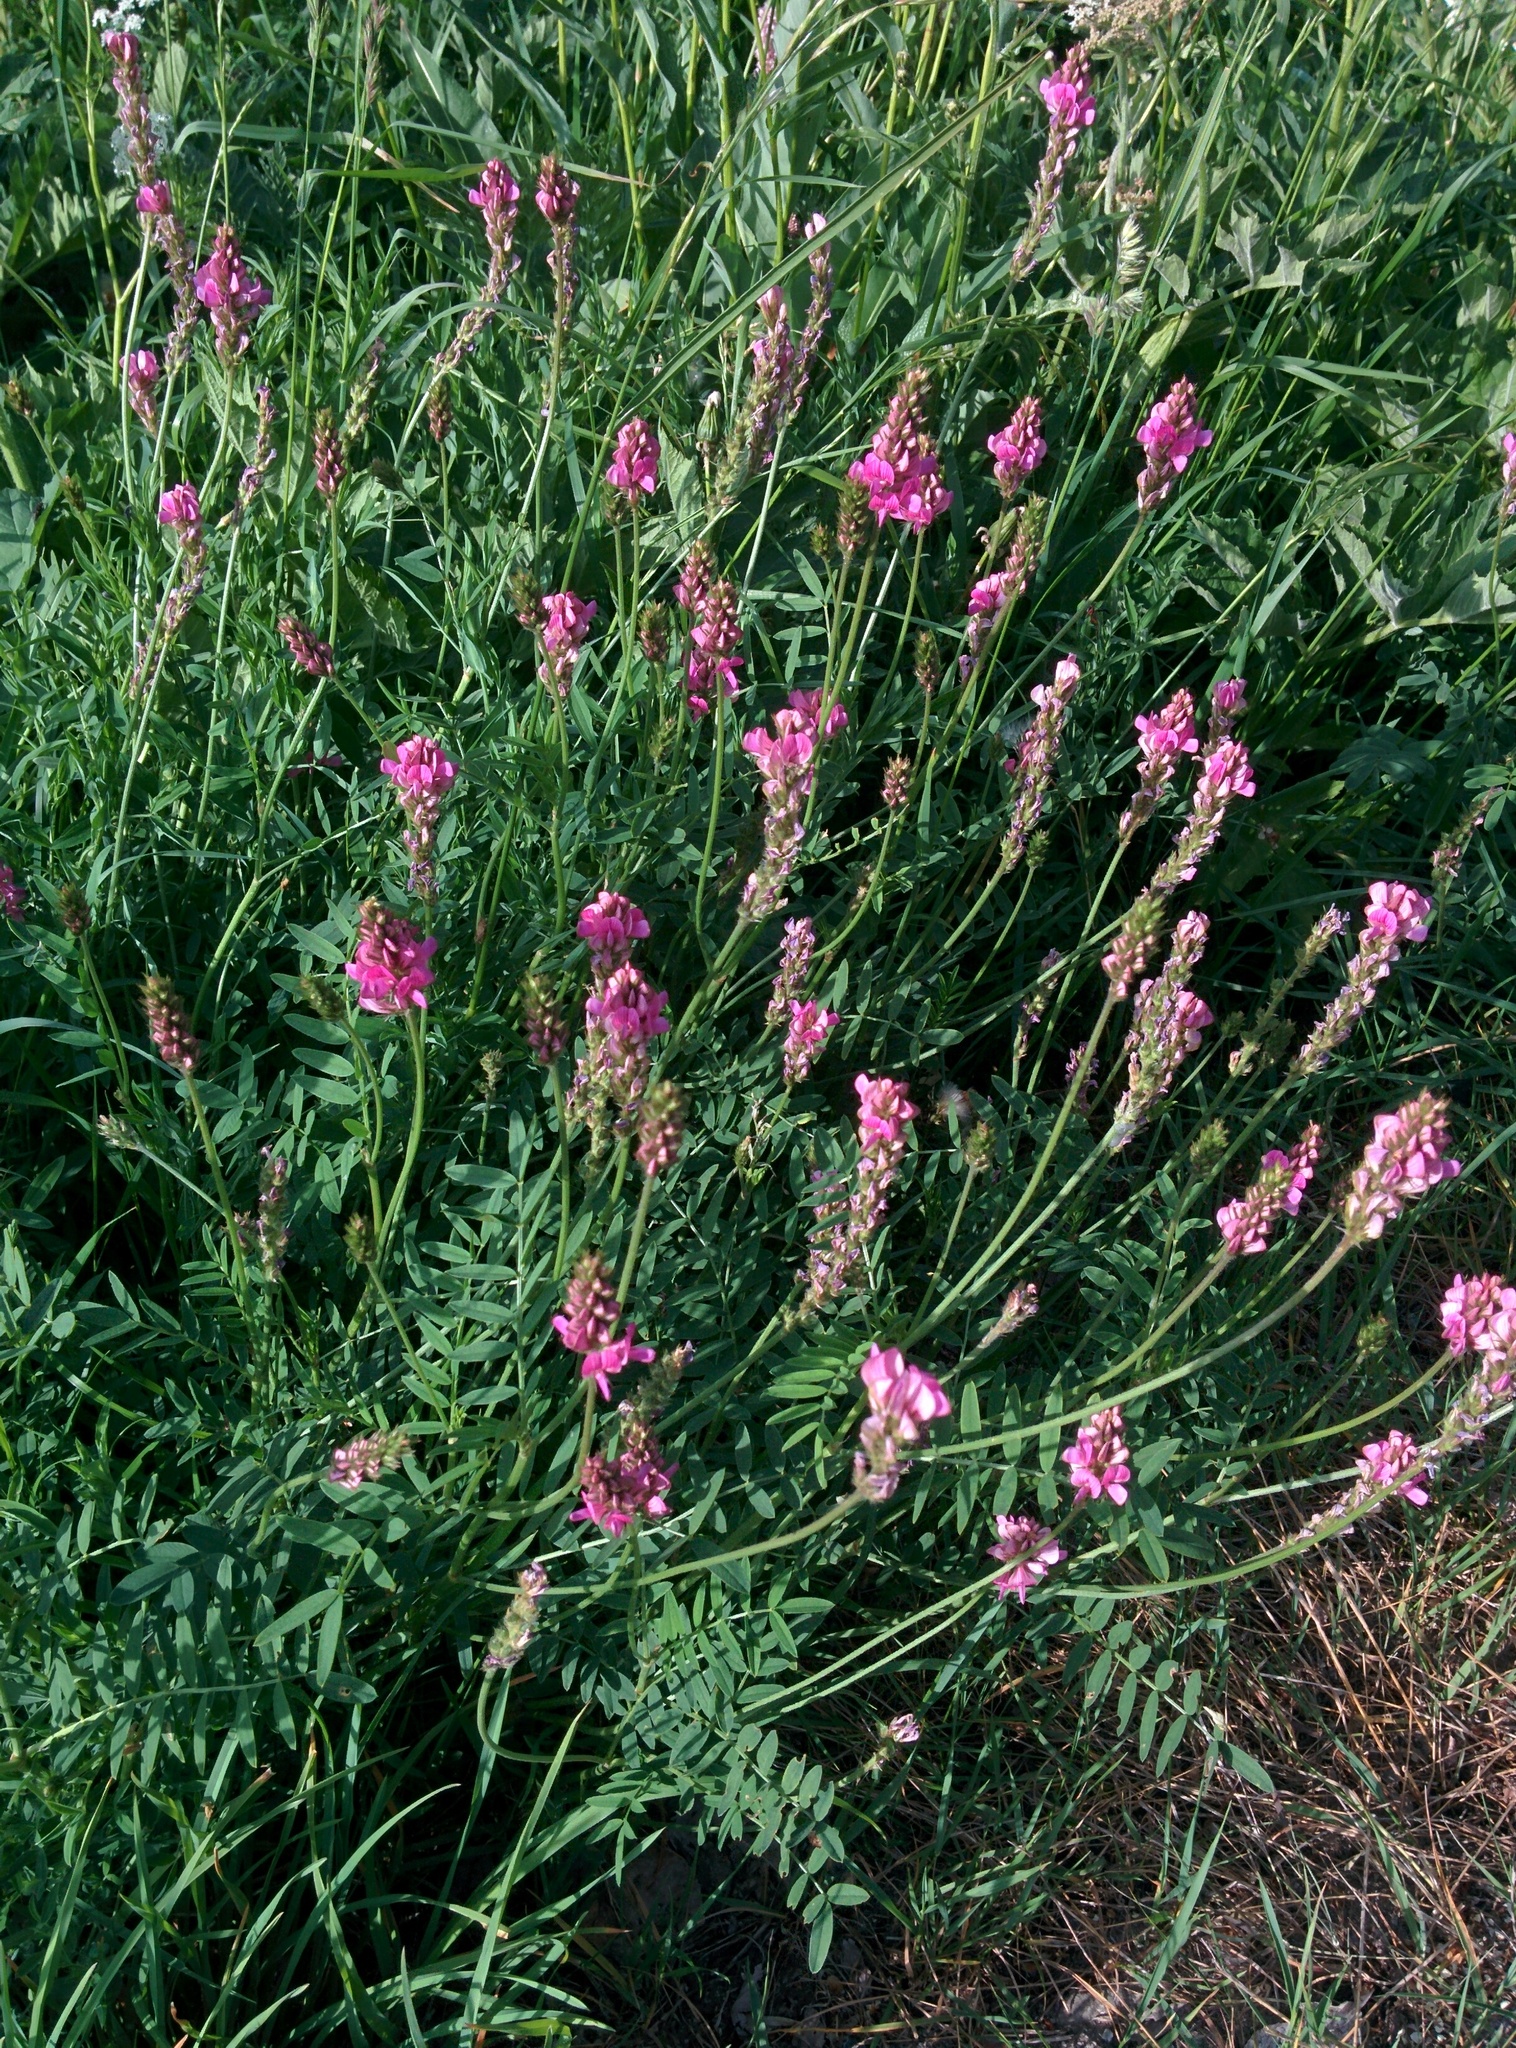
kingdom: Plantae
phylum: Tracheophyta
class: Magnoliopsida
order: Fabales
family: Fabaceae
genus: Onobrychis
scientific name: Onobrychis viciifolia
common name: Sainfoin
